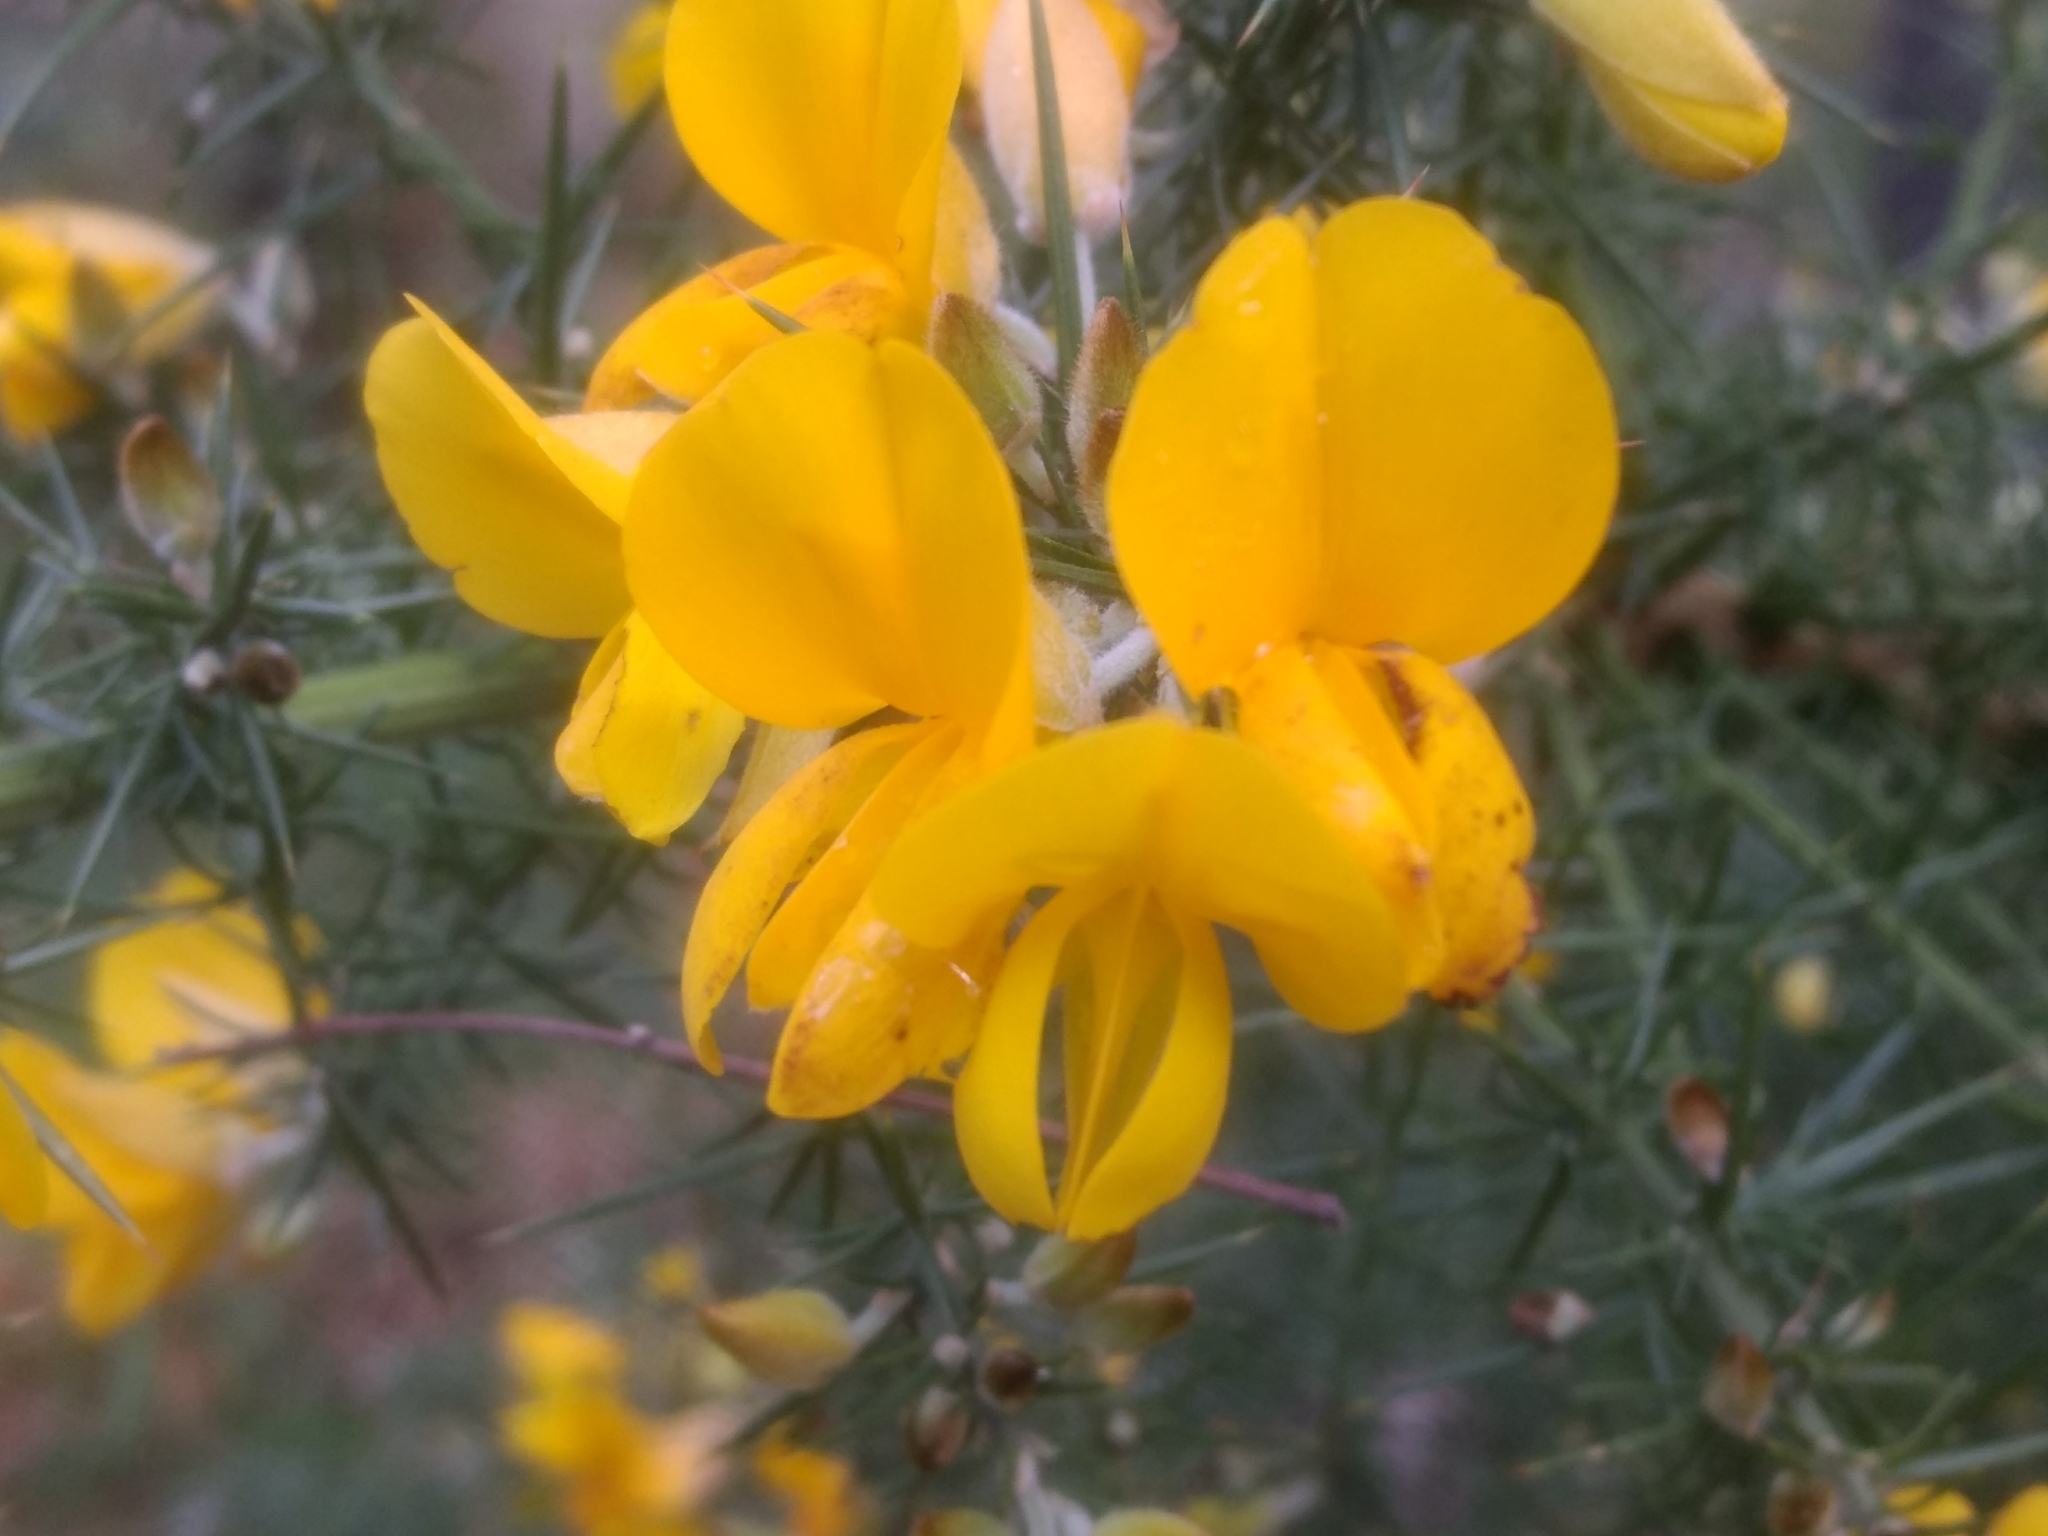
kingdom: Plantae
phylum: Tracheophyta
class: Magnoliopsida
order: Fabales
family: Fabaceae
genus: Ulex
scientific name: Ulex europaeus
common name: Common gorse
